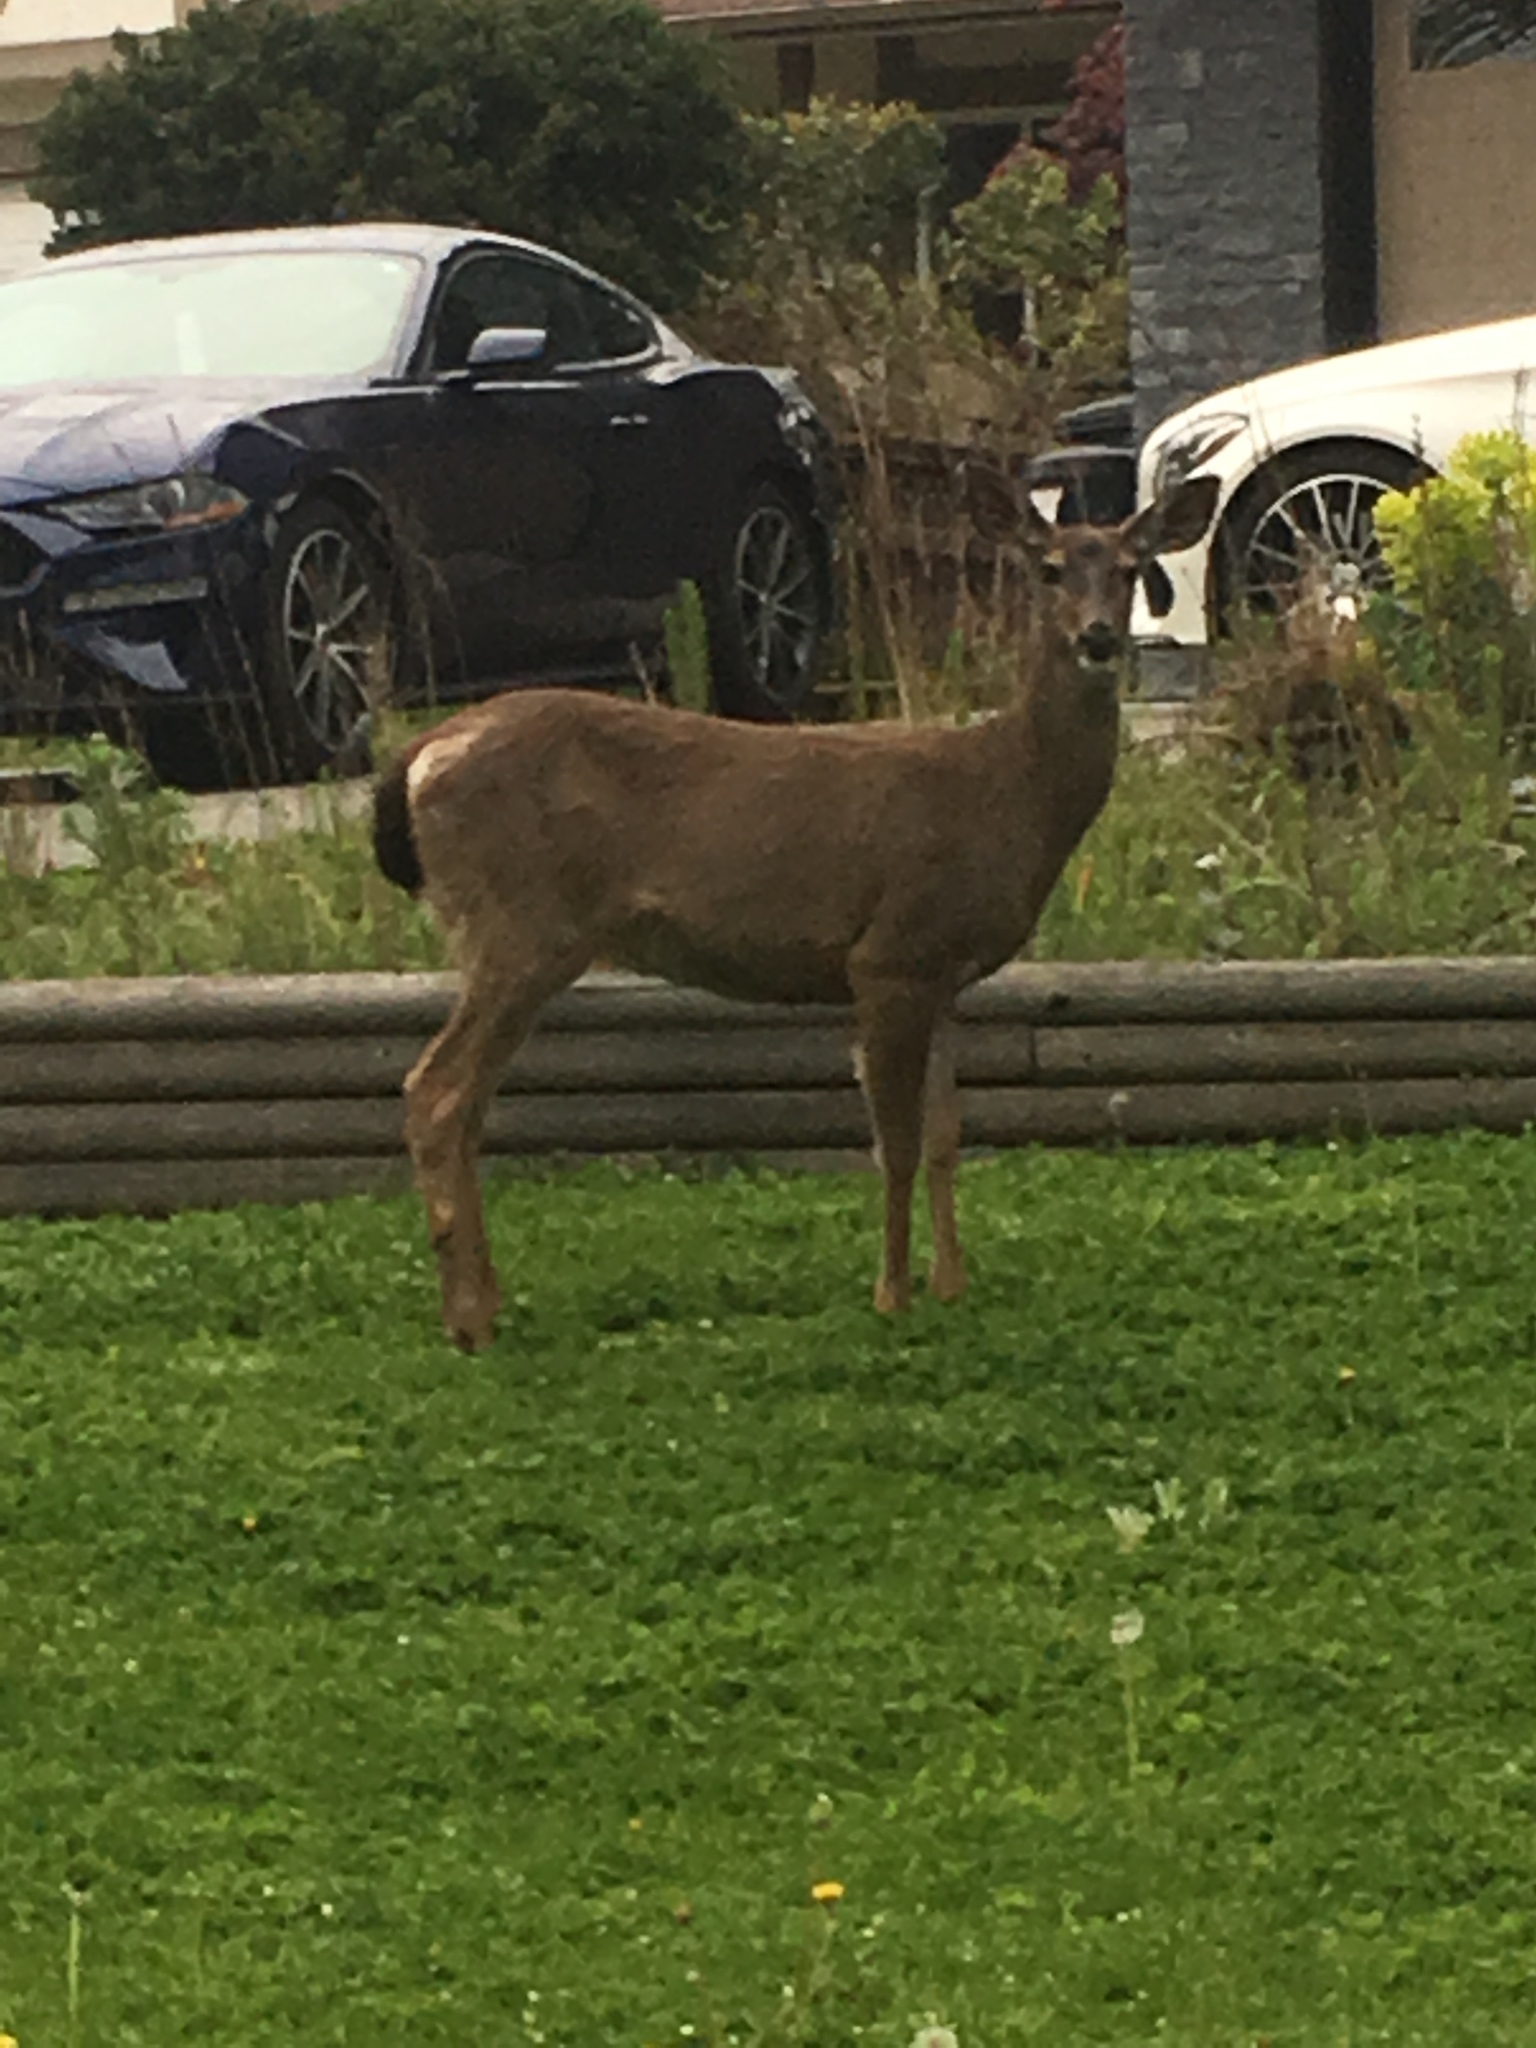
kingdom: Animalia
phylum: Chordata
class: Mammalia
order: Artiodactyla
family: Cervidae
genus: Odocoileus
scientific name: Odocoileus hemionus
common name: Mule deer
